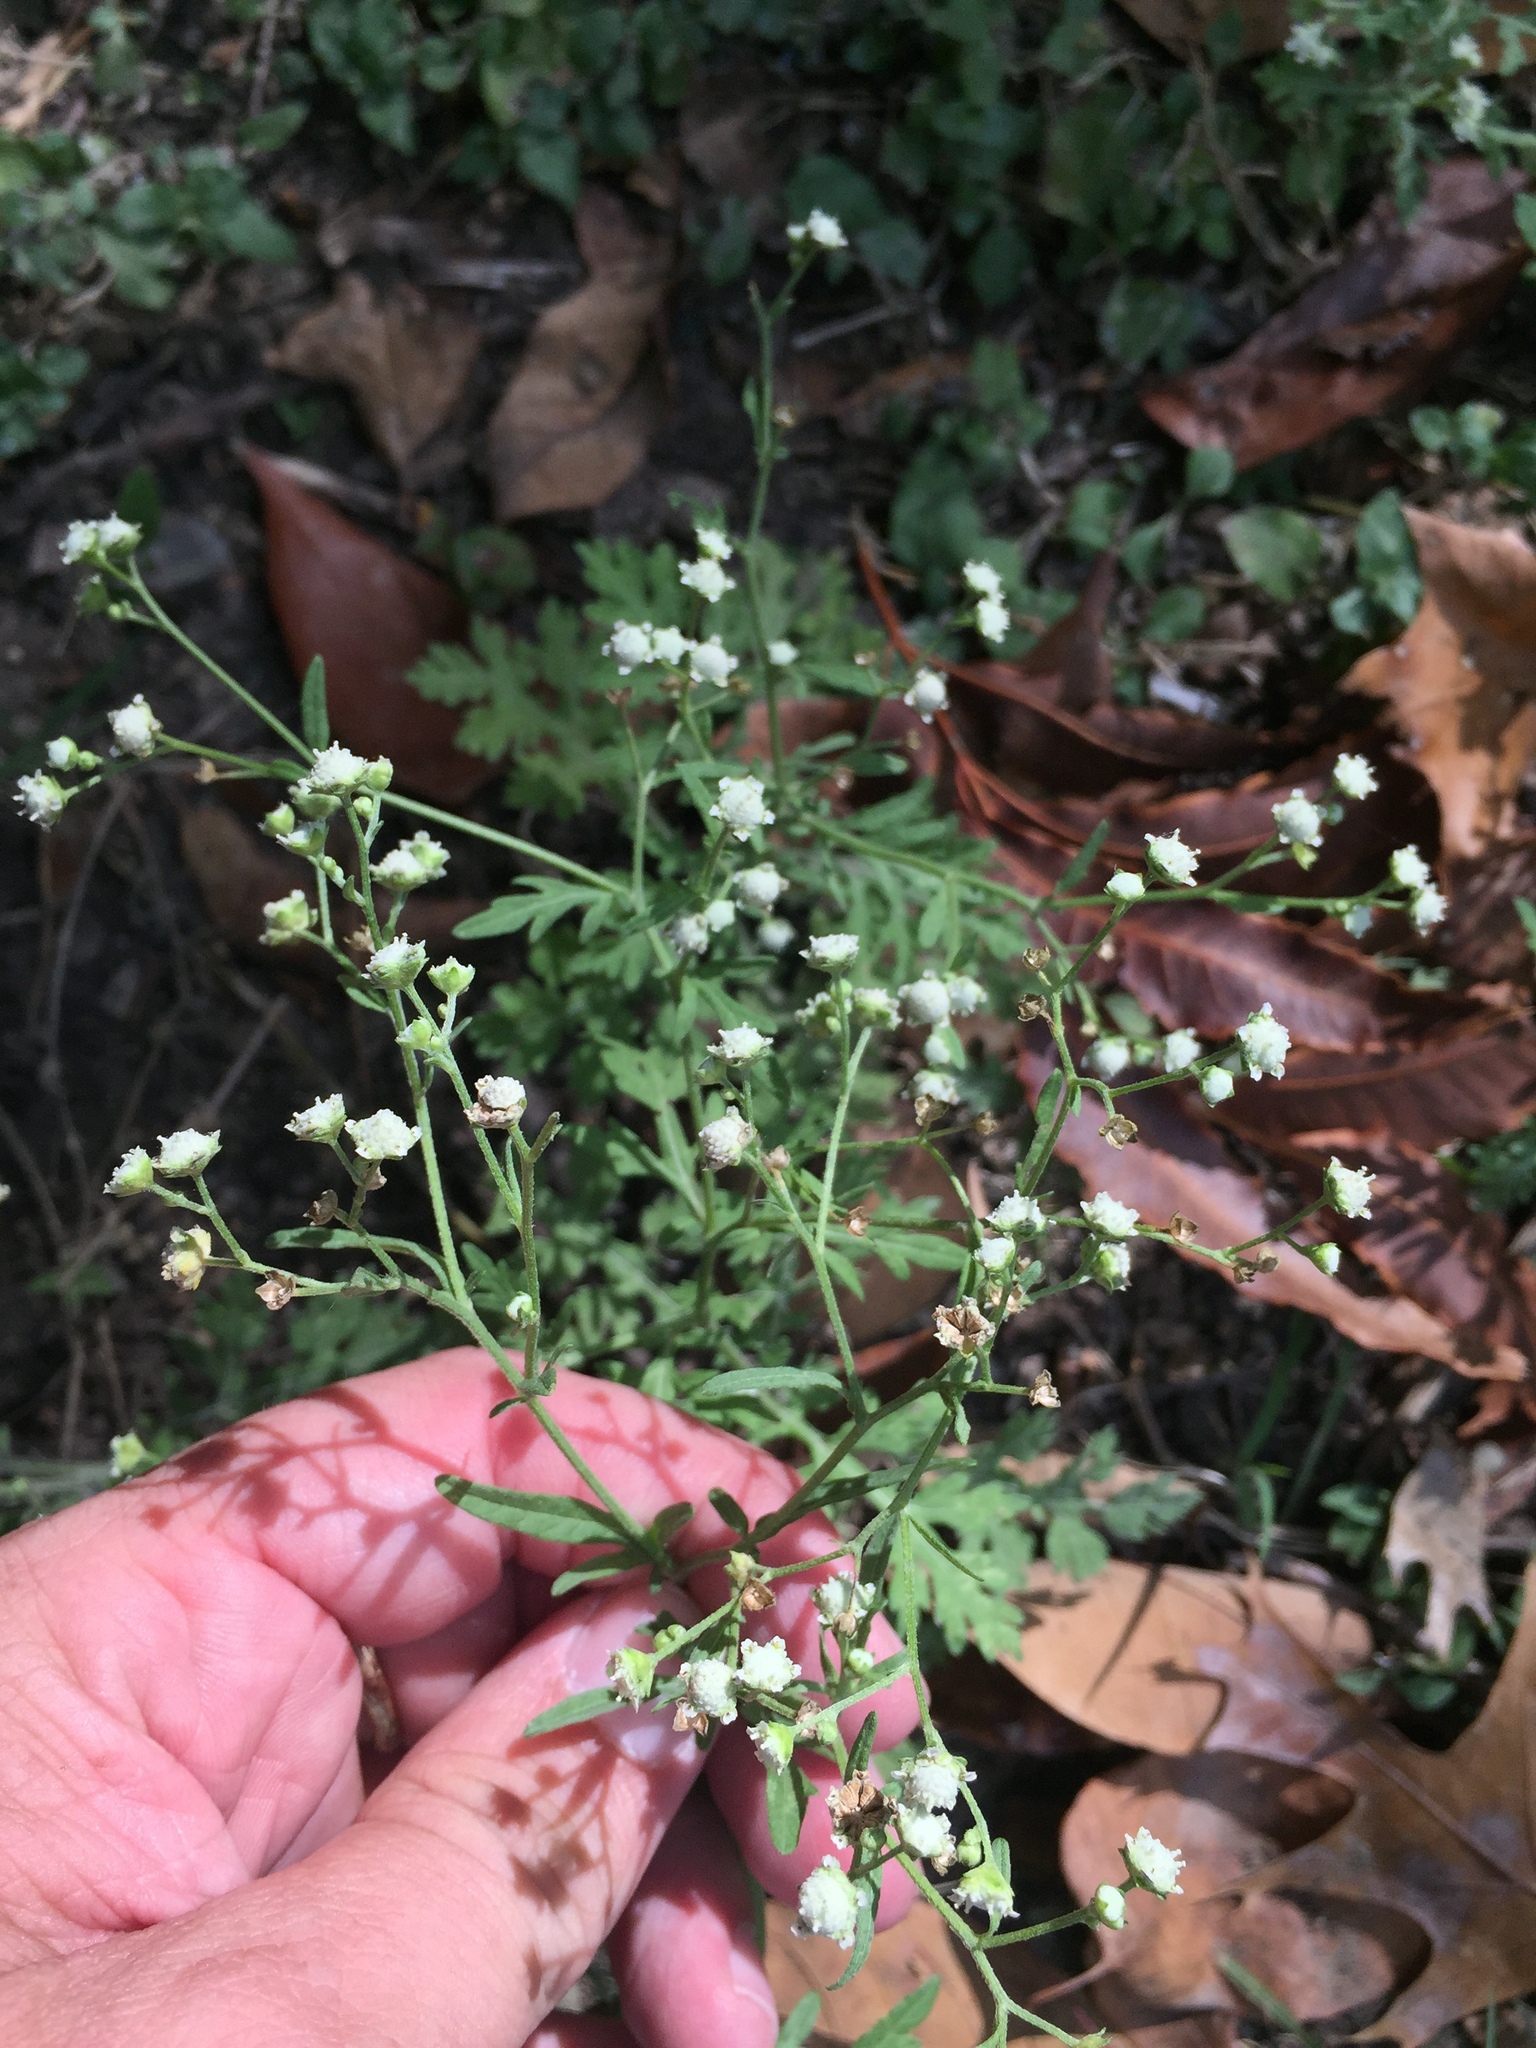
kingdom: Plantae
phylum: Tracheophyta
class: Magnoliopsida
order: Asterales
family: Asteraceae
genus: Parthenium
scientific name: Parthenium hysterophorus
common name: Santa maria feverfew
